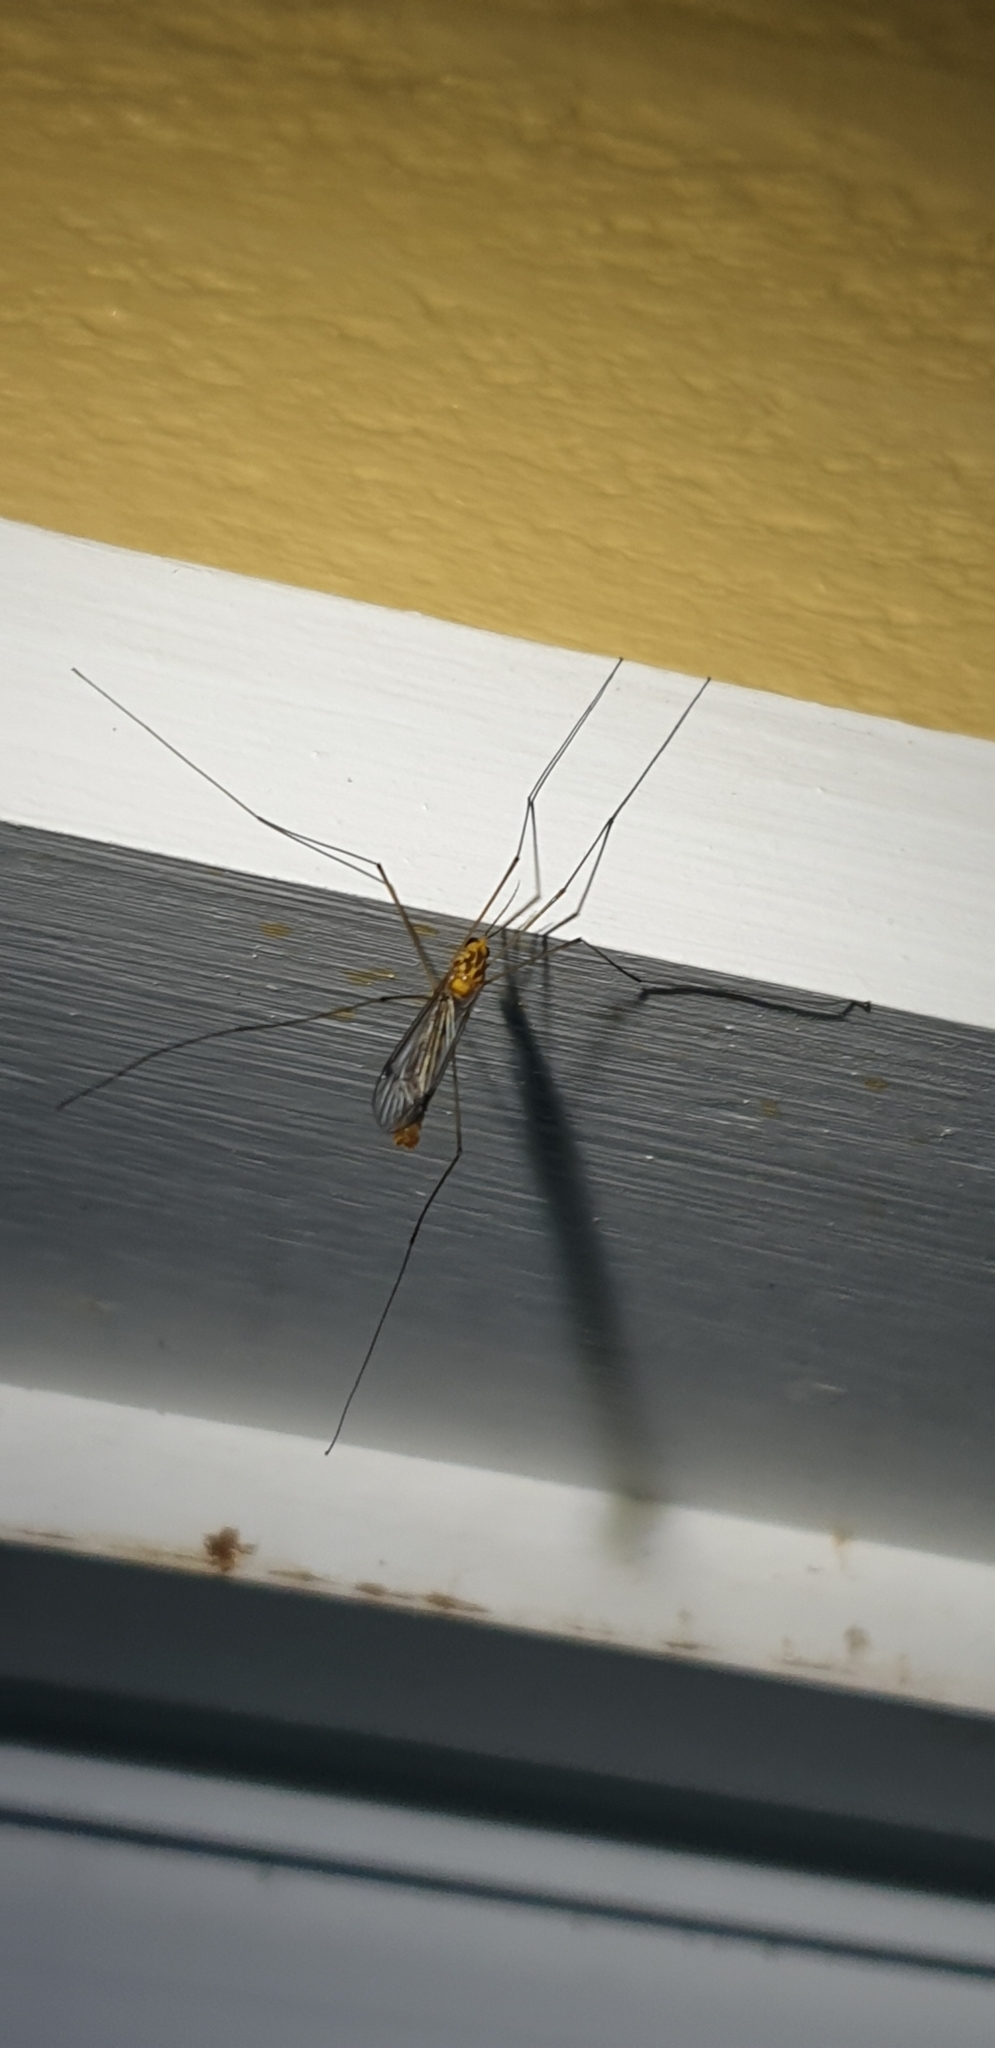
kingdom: Animalia
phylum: Arthropoda
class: Insecta
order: Diptera
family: Tipulidae
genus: Nephrotoma
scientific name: Nephrotoma australasiae
